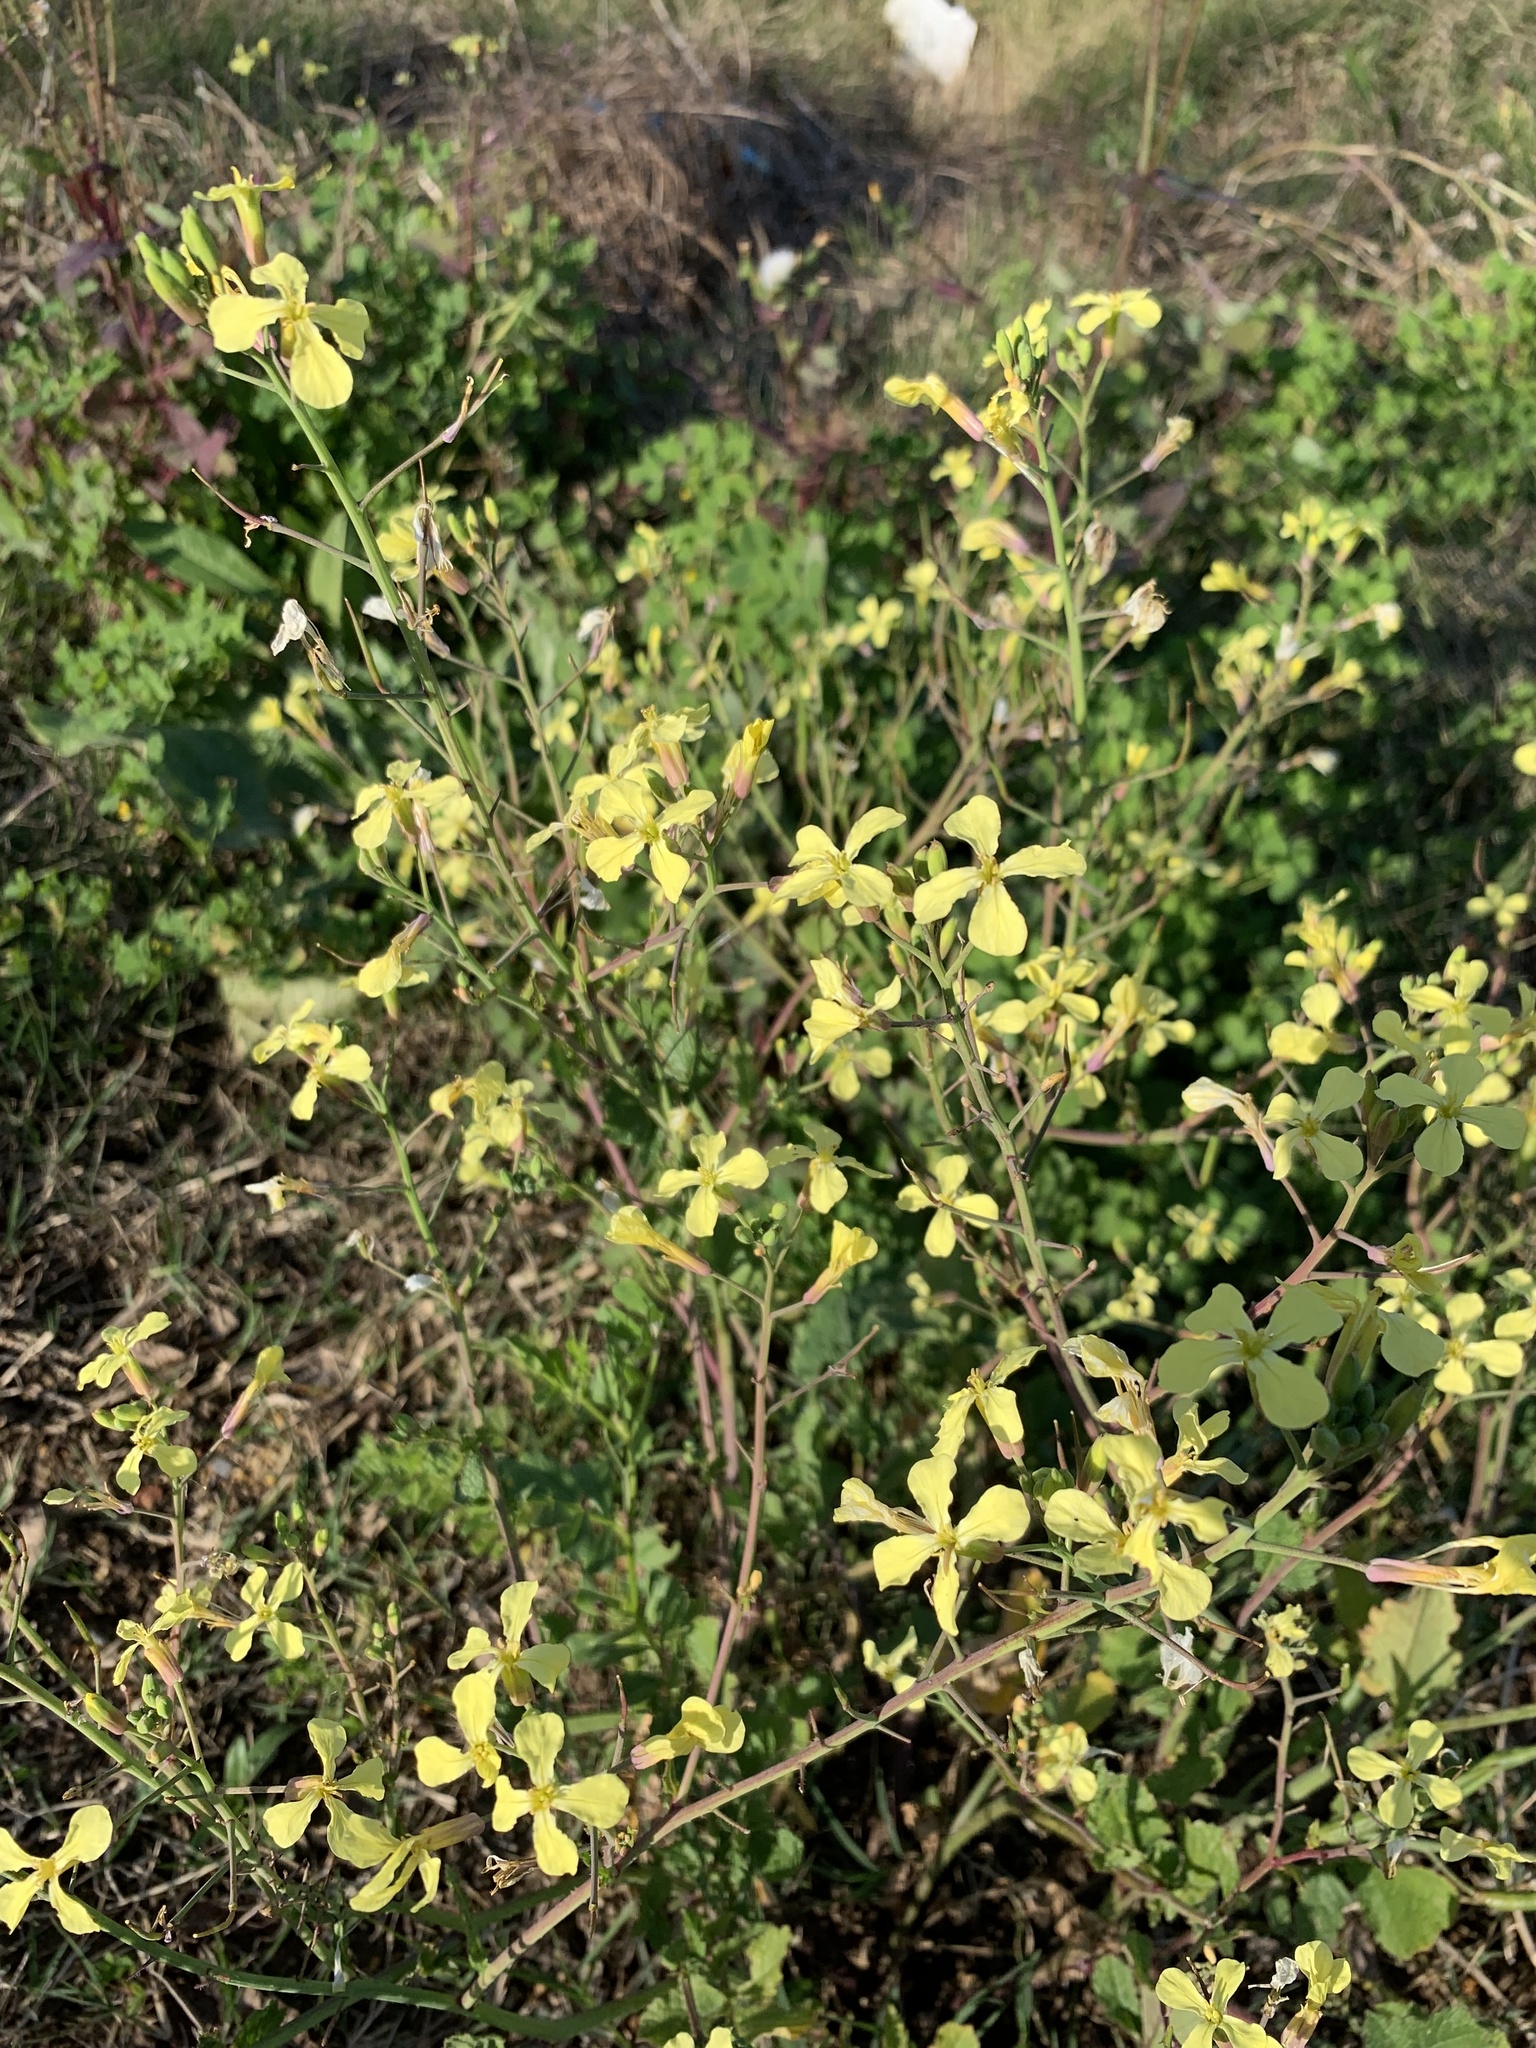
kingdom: Plantae
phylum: Tracheophyta
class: Magnoliopsida
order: Brassicales
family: Brassicaceae
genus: Raphanus
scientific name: Raphanus raphanistrum
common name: Wild radish
